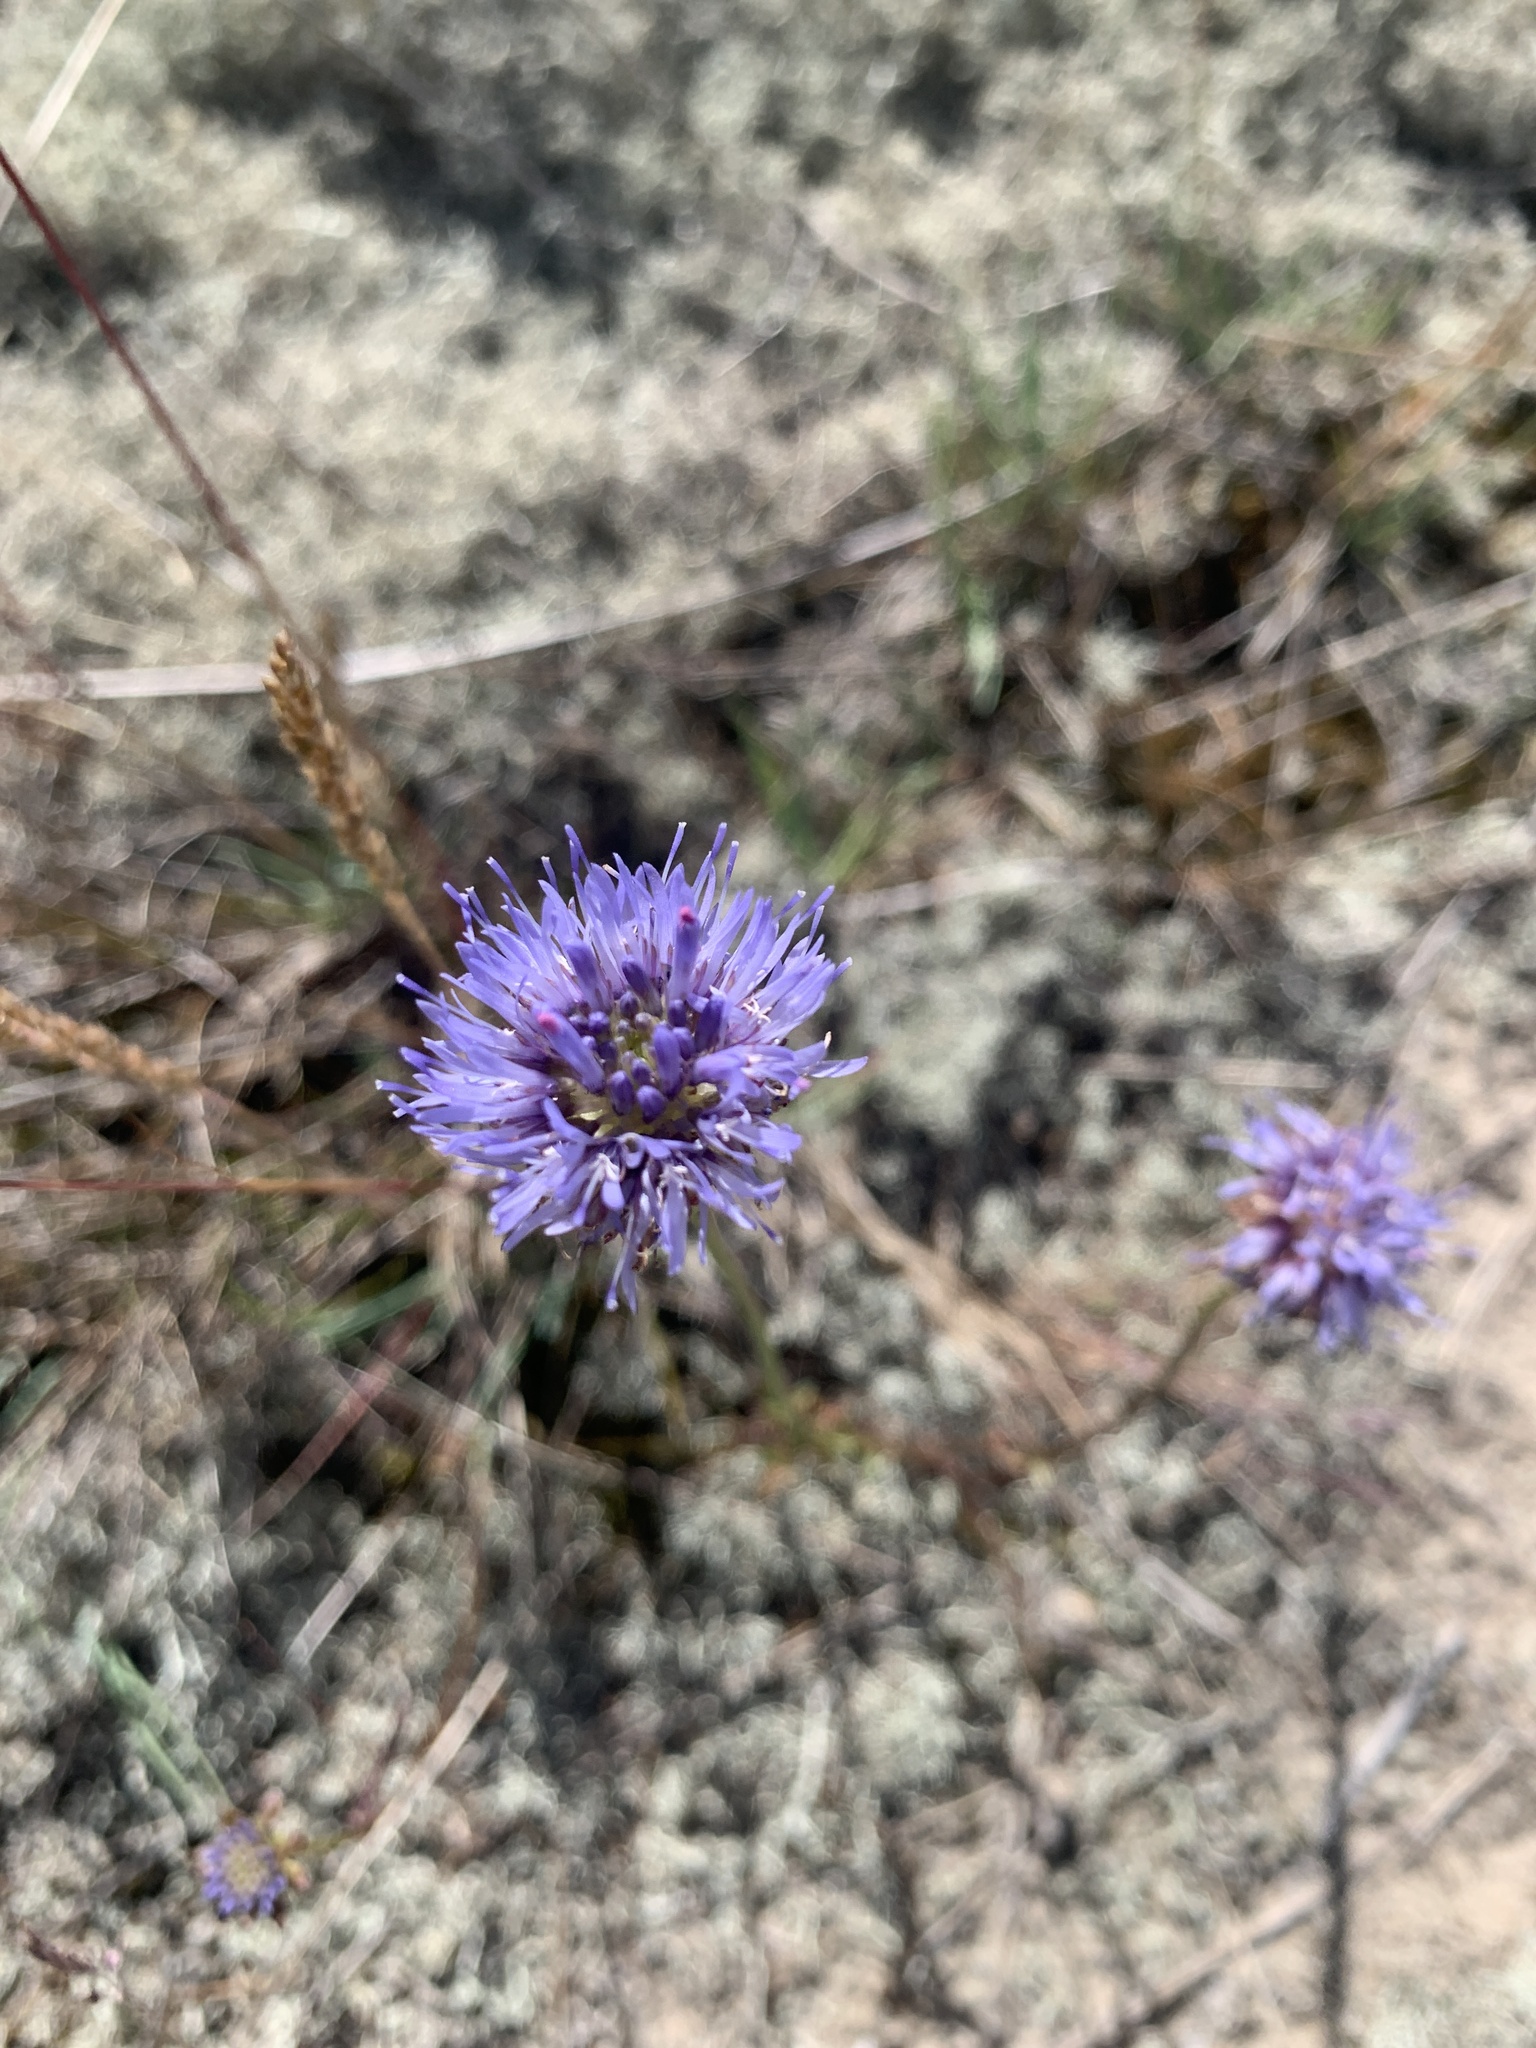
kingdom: Plantae
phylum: Tracheophyta
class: Magnoliopsida
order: Asterales
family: Campanulaceae
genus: Jasione
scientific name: Jasione montana
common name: Sheep's-bit
